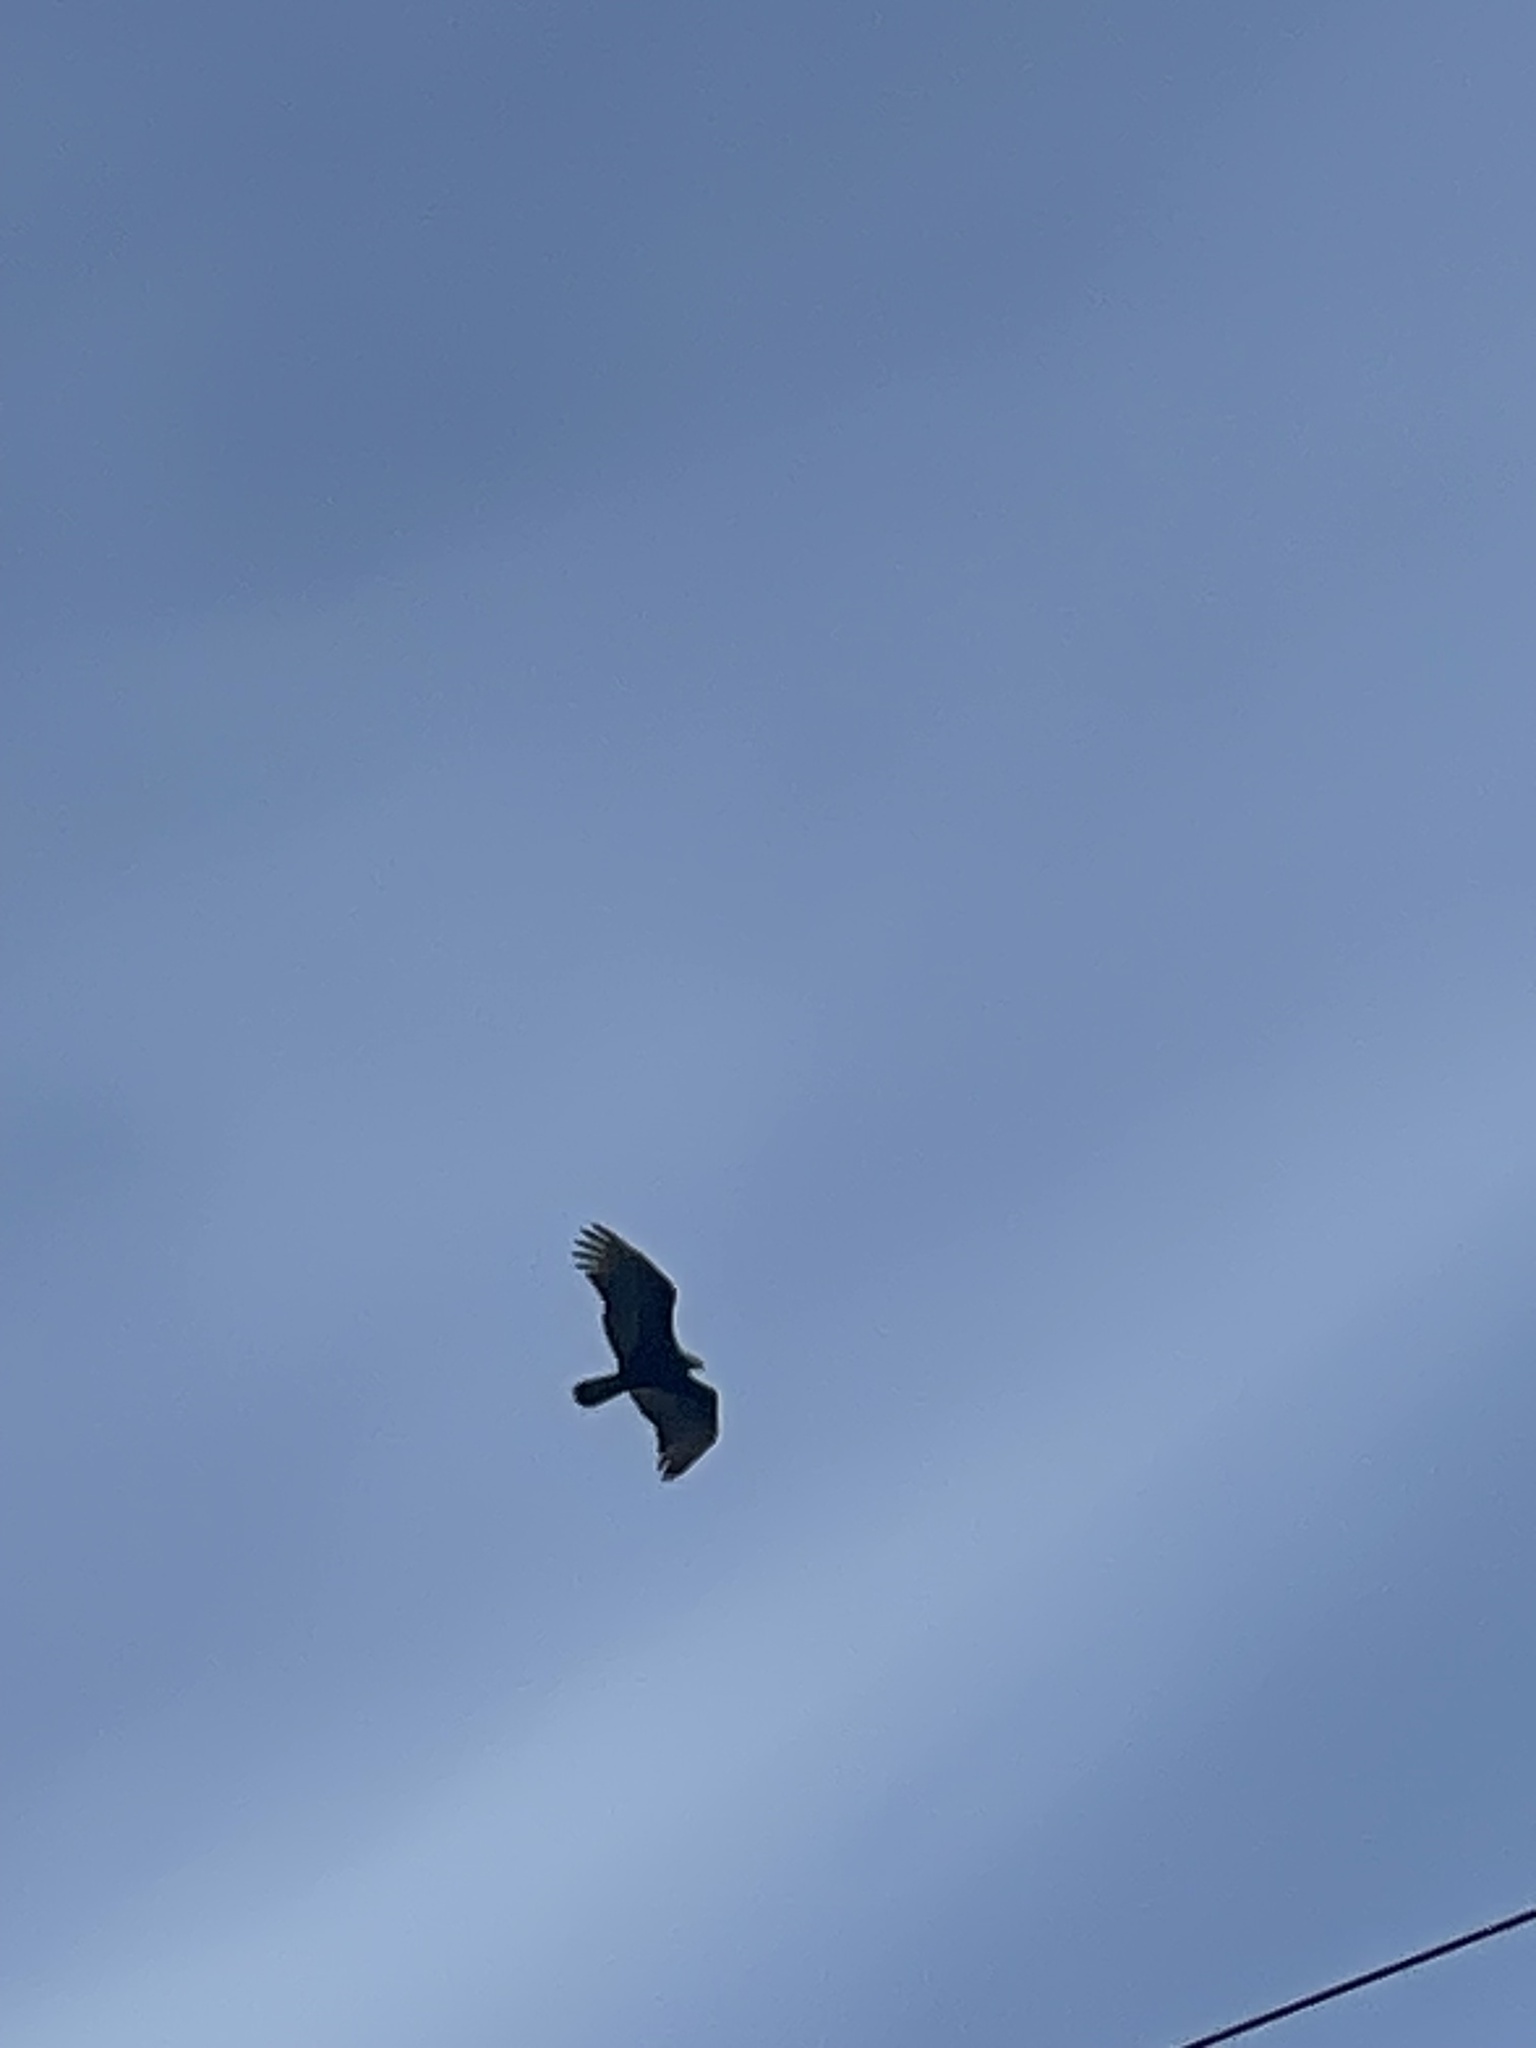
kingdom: Animalia
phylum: Chordata
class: Aves
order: Accipitriformes
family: Cathartidae
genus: Cathartes
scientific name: Cathartes aura
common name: Turkey vulture
